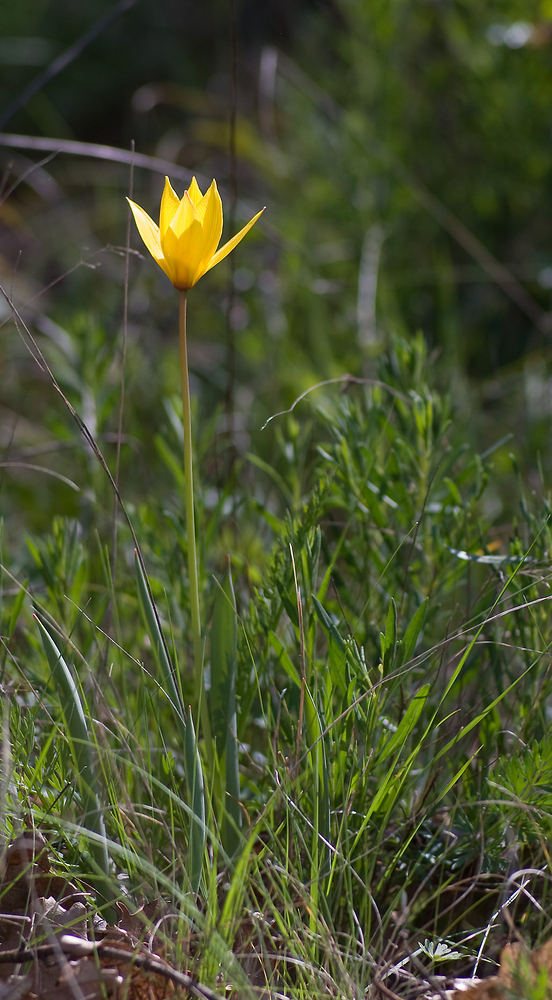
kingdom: Plantae
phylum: Tracheophyta
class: Liliopsida
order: Liliales
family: Liliaceae
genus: Tulipa
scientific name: Tulipa sylvestris
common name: Wild tulip
